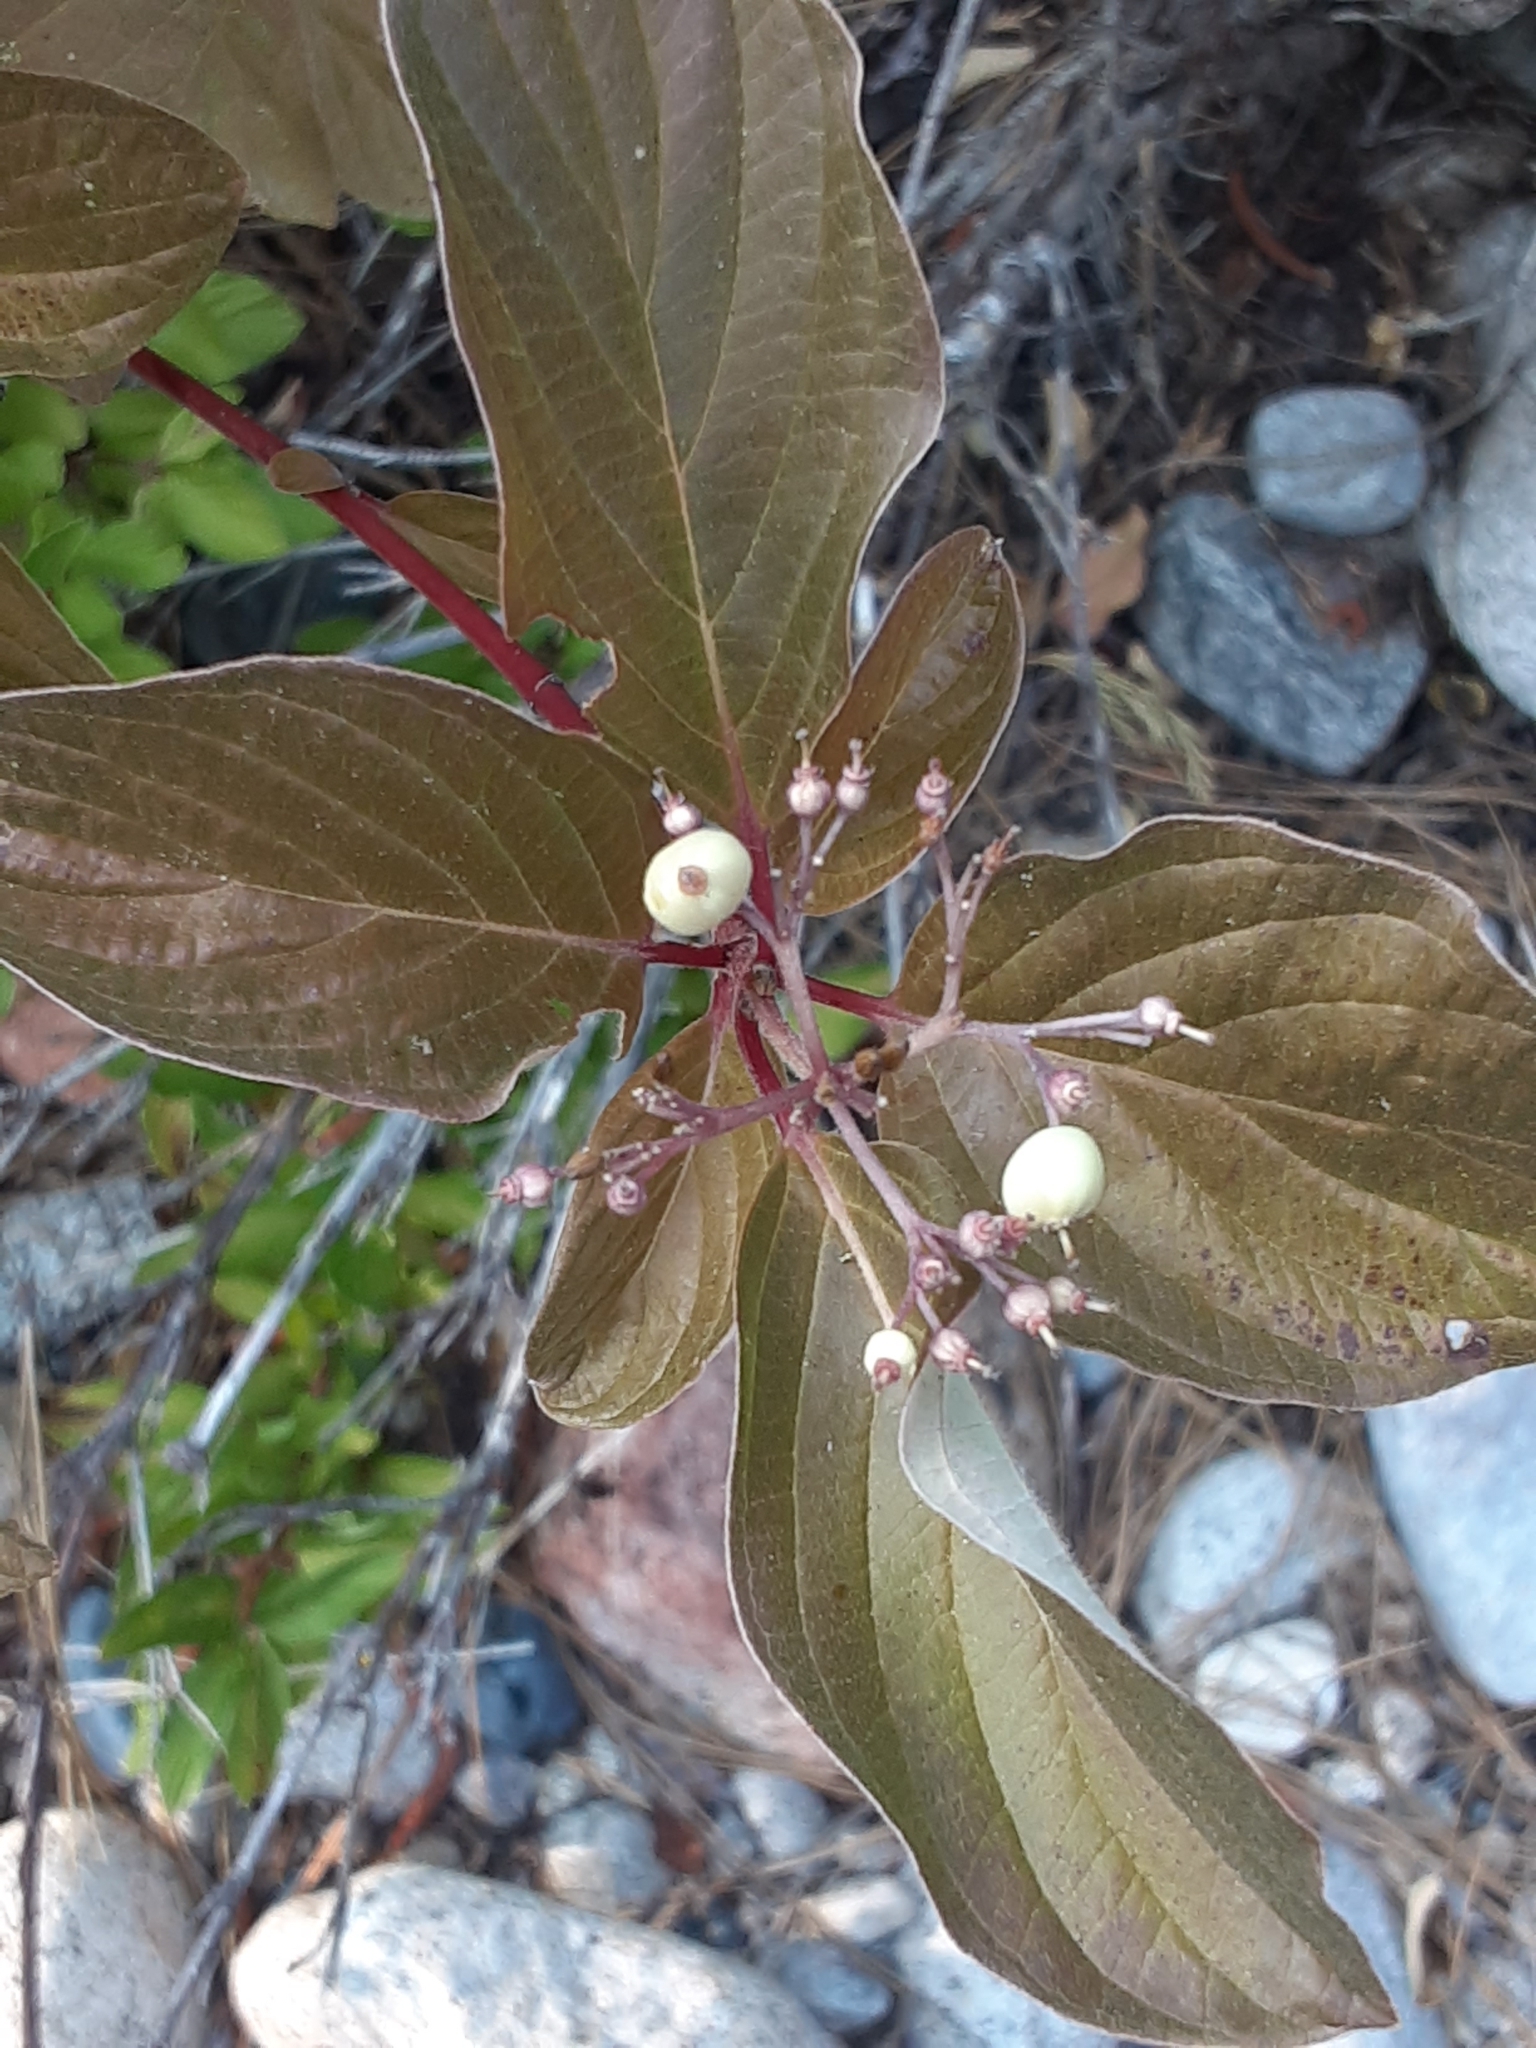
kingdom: Plantae
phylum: Tracheophyta
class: Magnoliopsida
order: Cornales
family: Cornaceae
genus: Cornus
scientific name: Cornus sericea
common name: Red-osier dogwood
